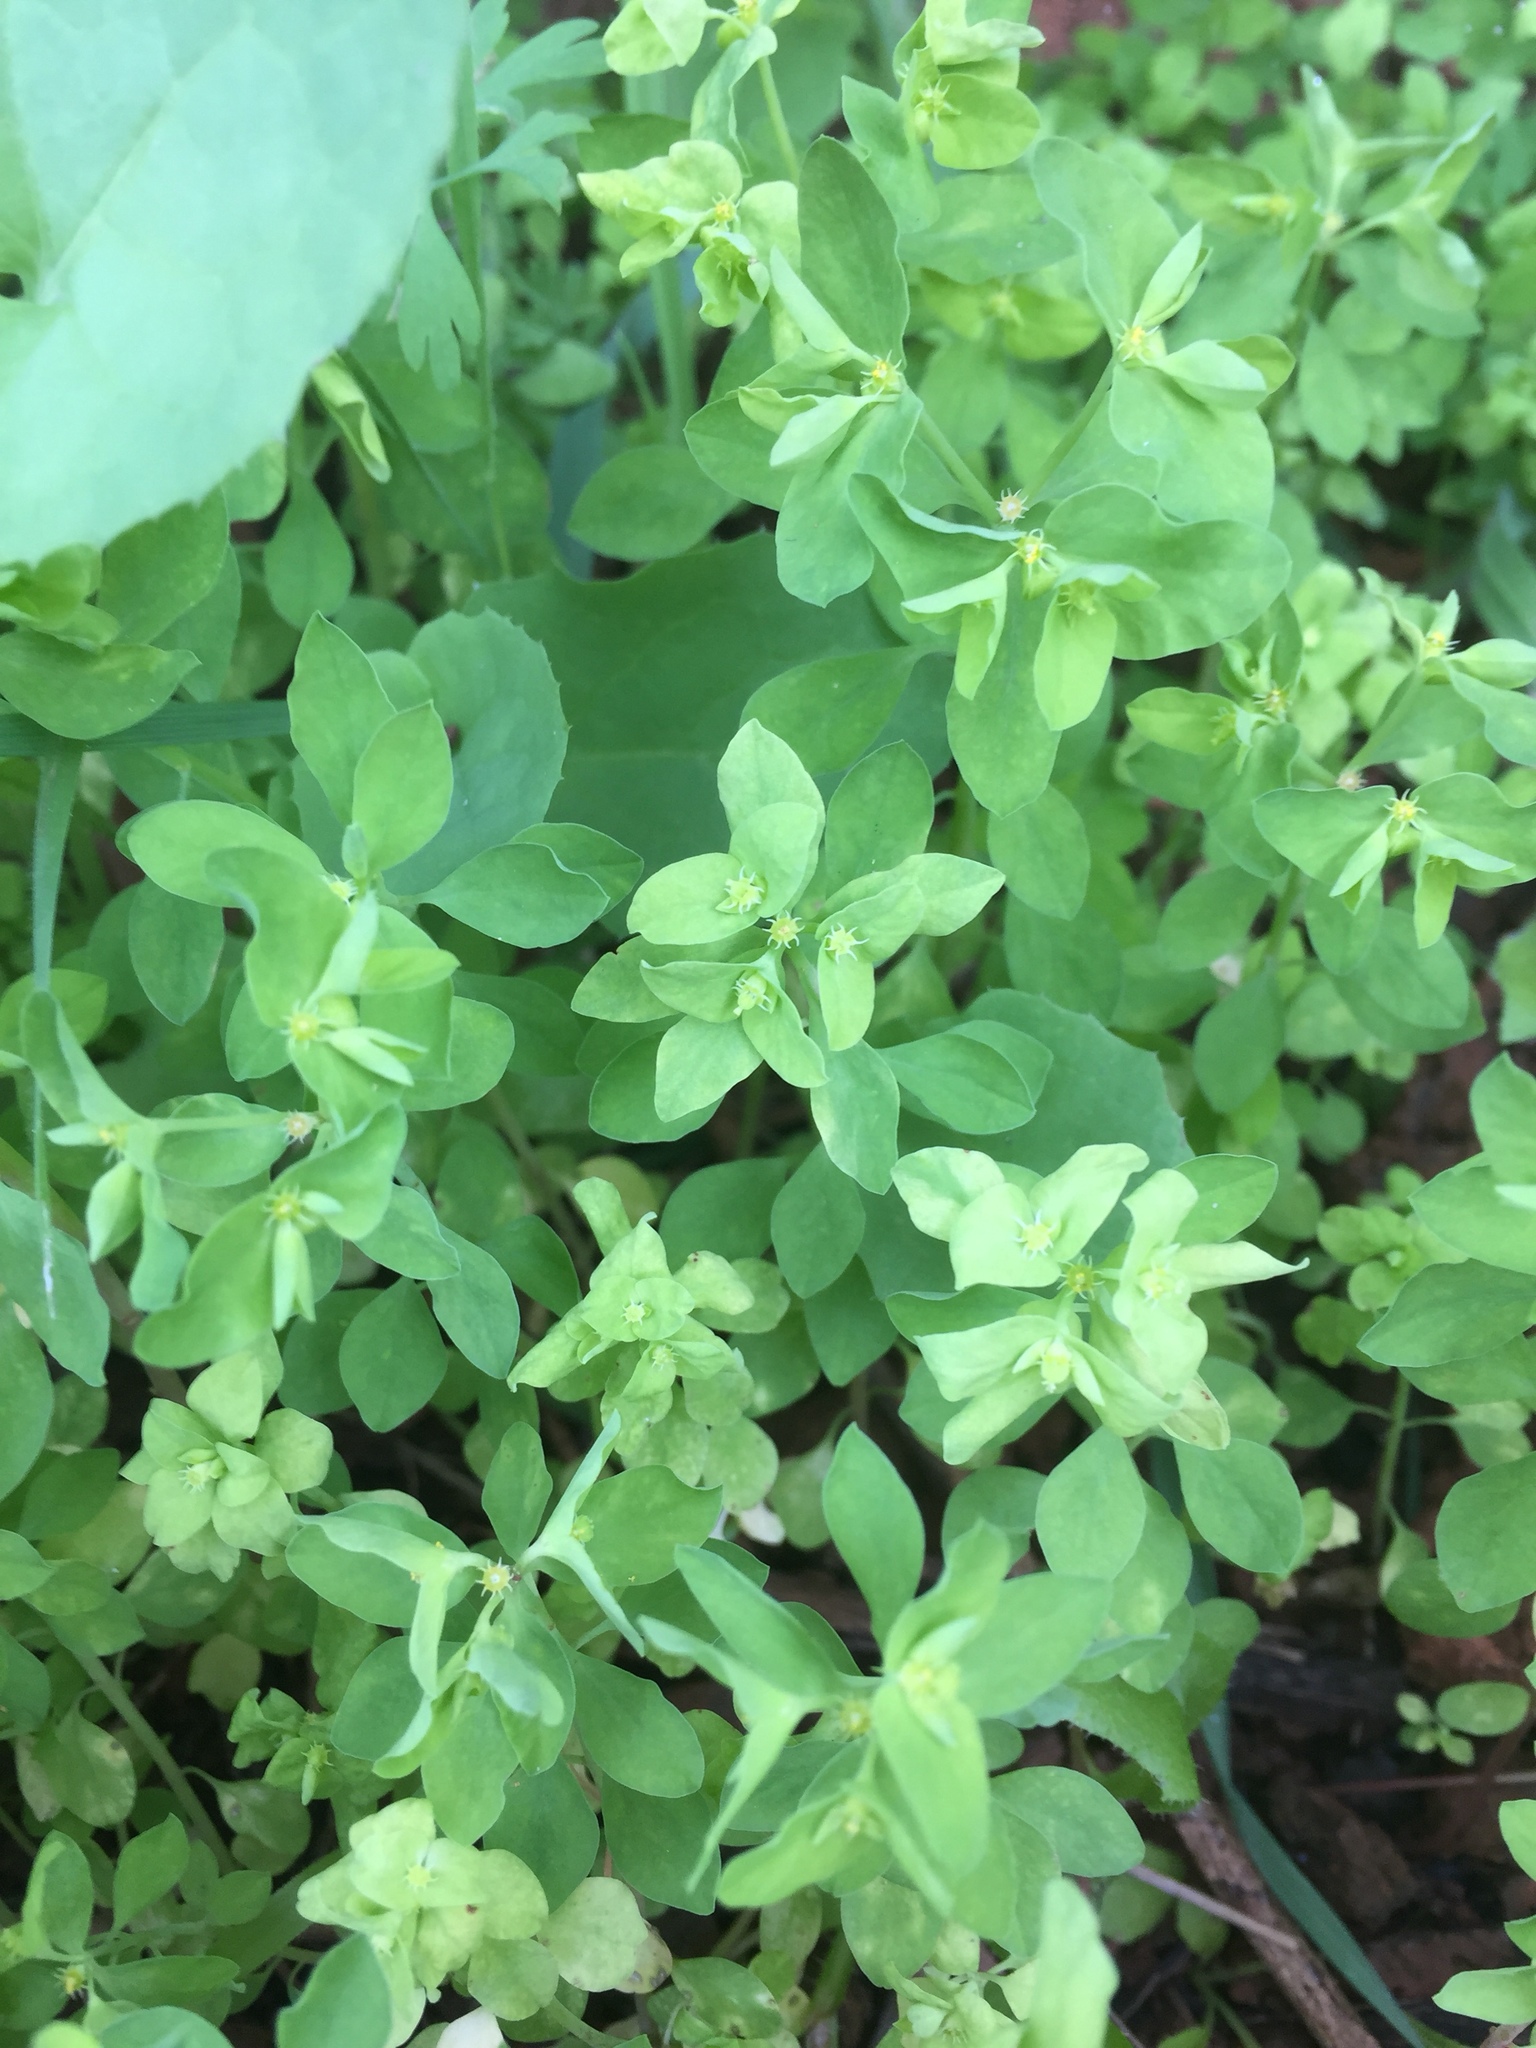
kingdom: Plantae
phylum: Tracheophyta
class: Magnoliopsida
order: Malpighiales
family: Euphorbiaceae
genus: Euphorbia
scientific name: Euphorbia peplus
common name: Petty spurge
